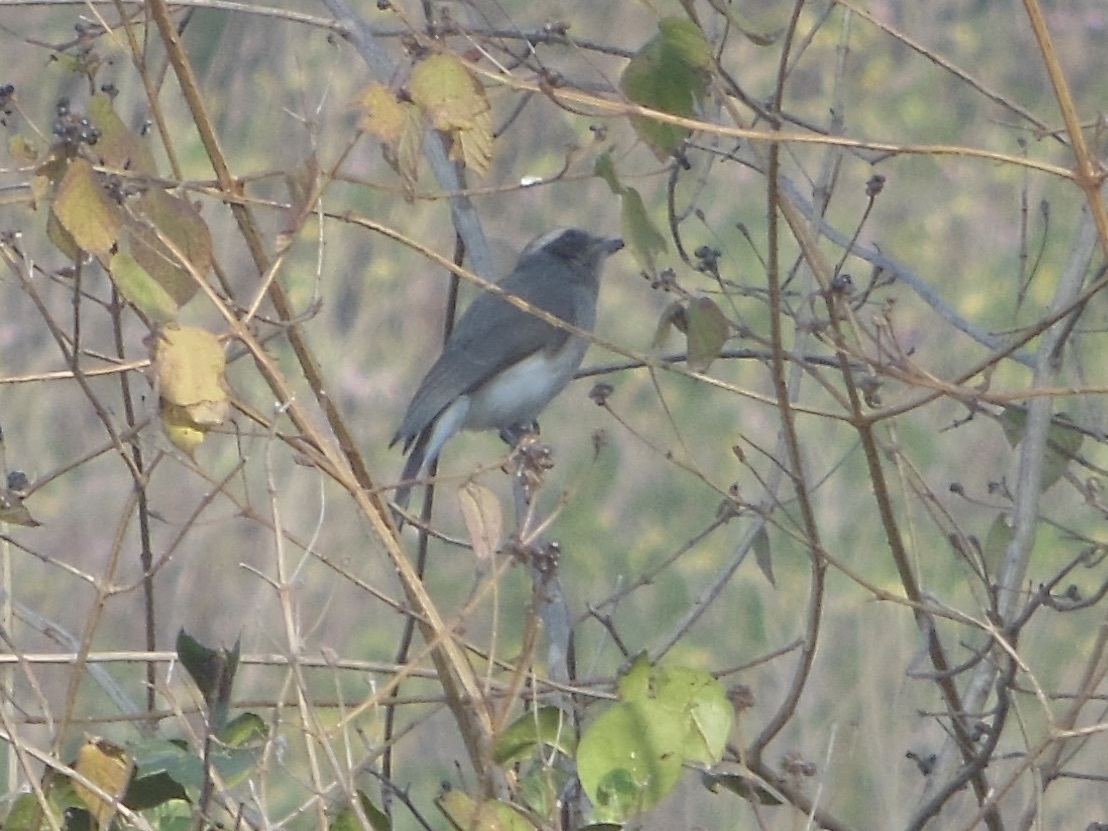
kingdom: Animalia
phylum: Chordata
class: Aves
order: Passeriformes
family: Tephrodornithidae
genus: Tephrodornis
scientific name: Tephrodornis pondicerianus
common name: Common woodshrike
